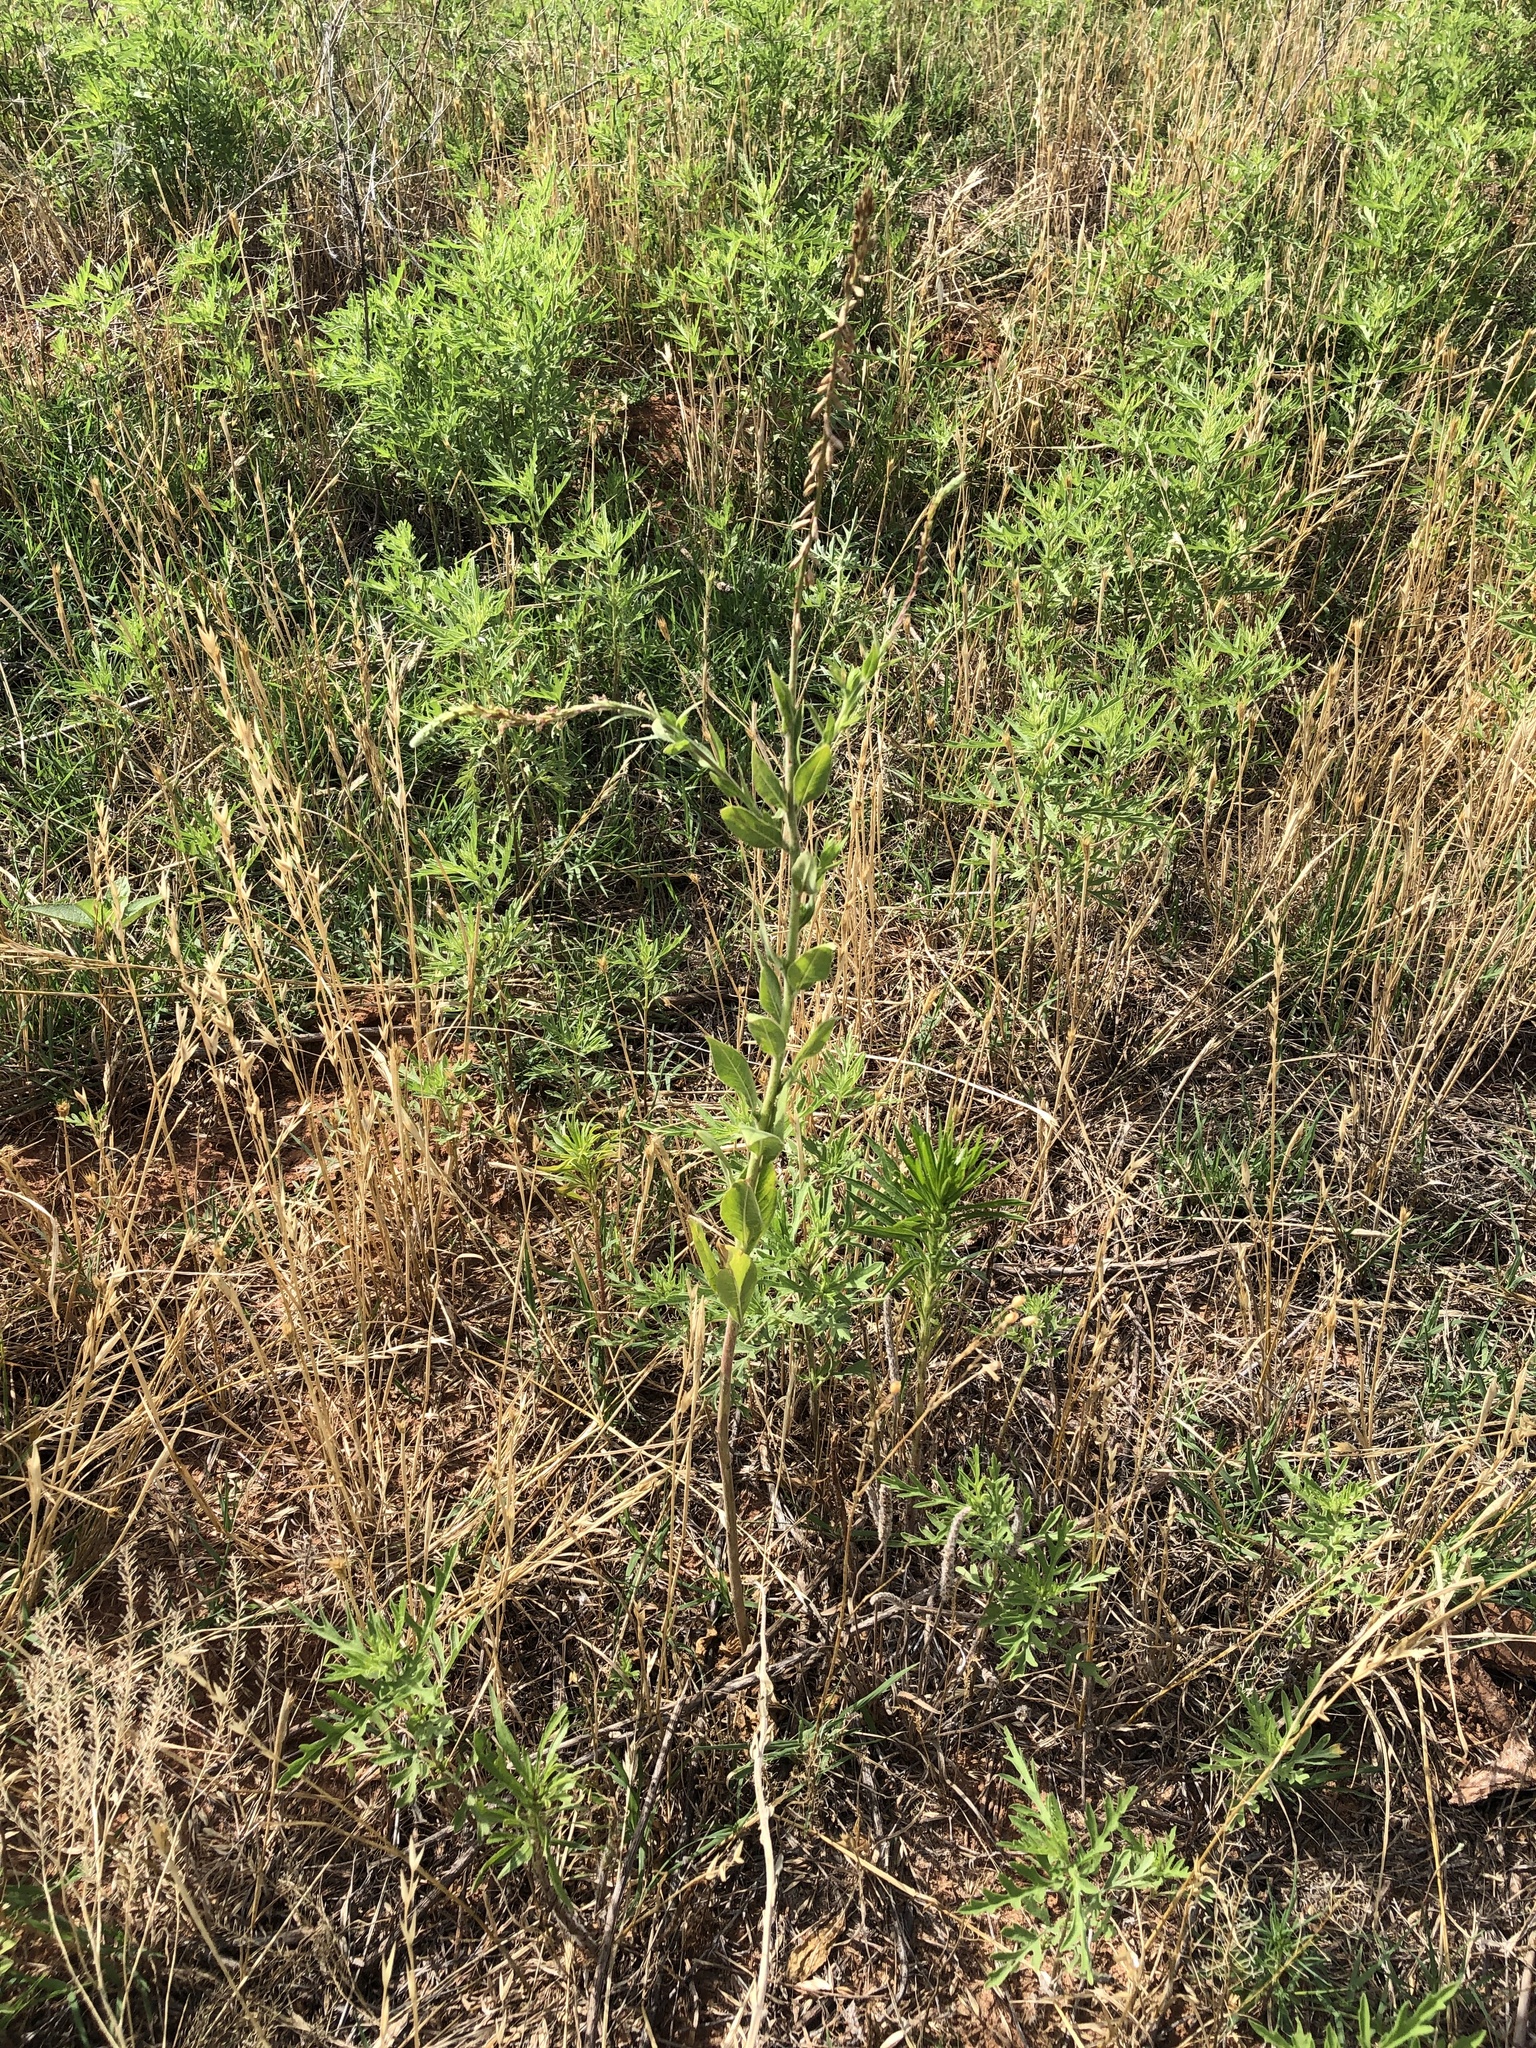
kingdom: Plantae
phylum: Tracheophyta
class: Magnoliopsida
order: Myrtales
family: Onagraceae
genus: Oenothera
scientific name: Oenothera curtiflora
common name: Velvetweed
